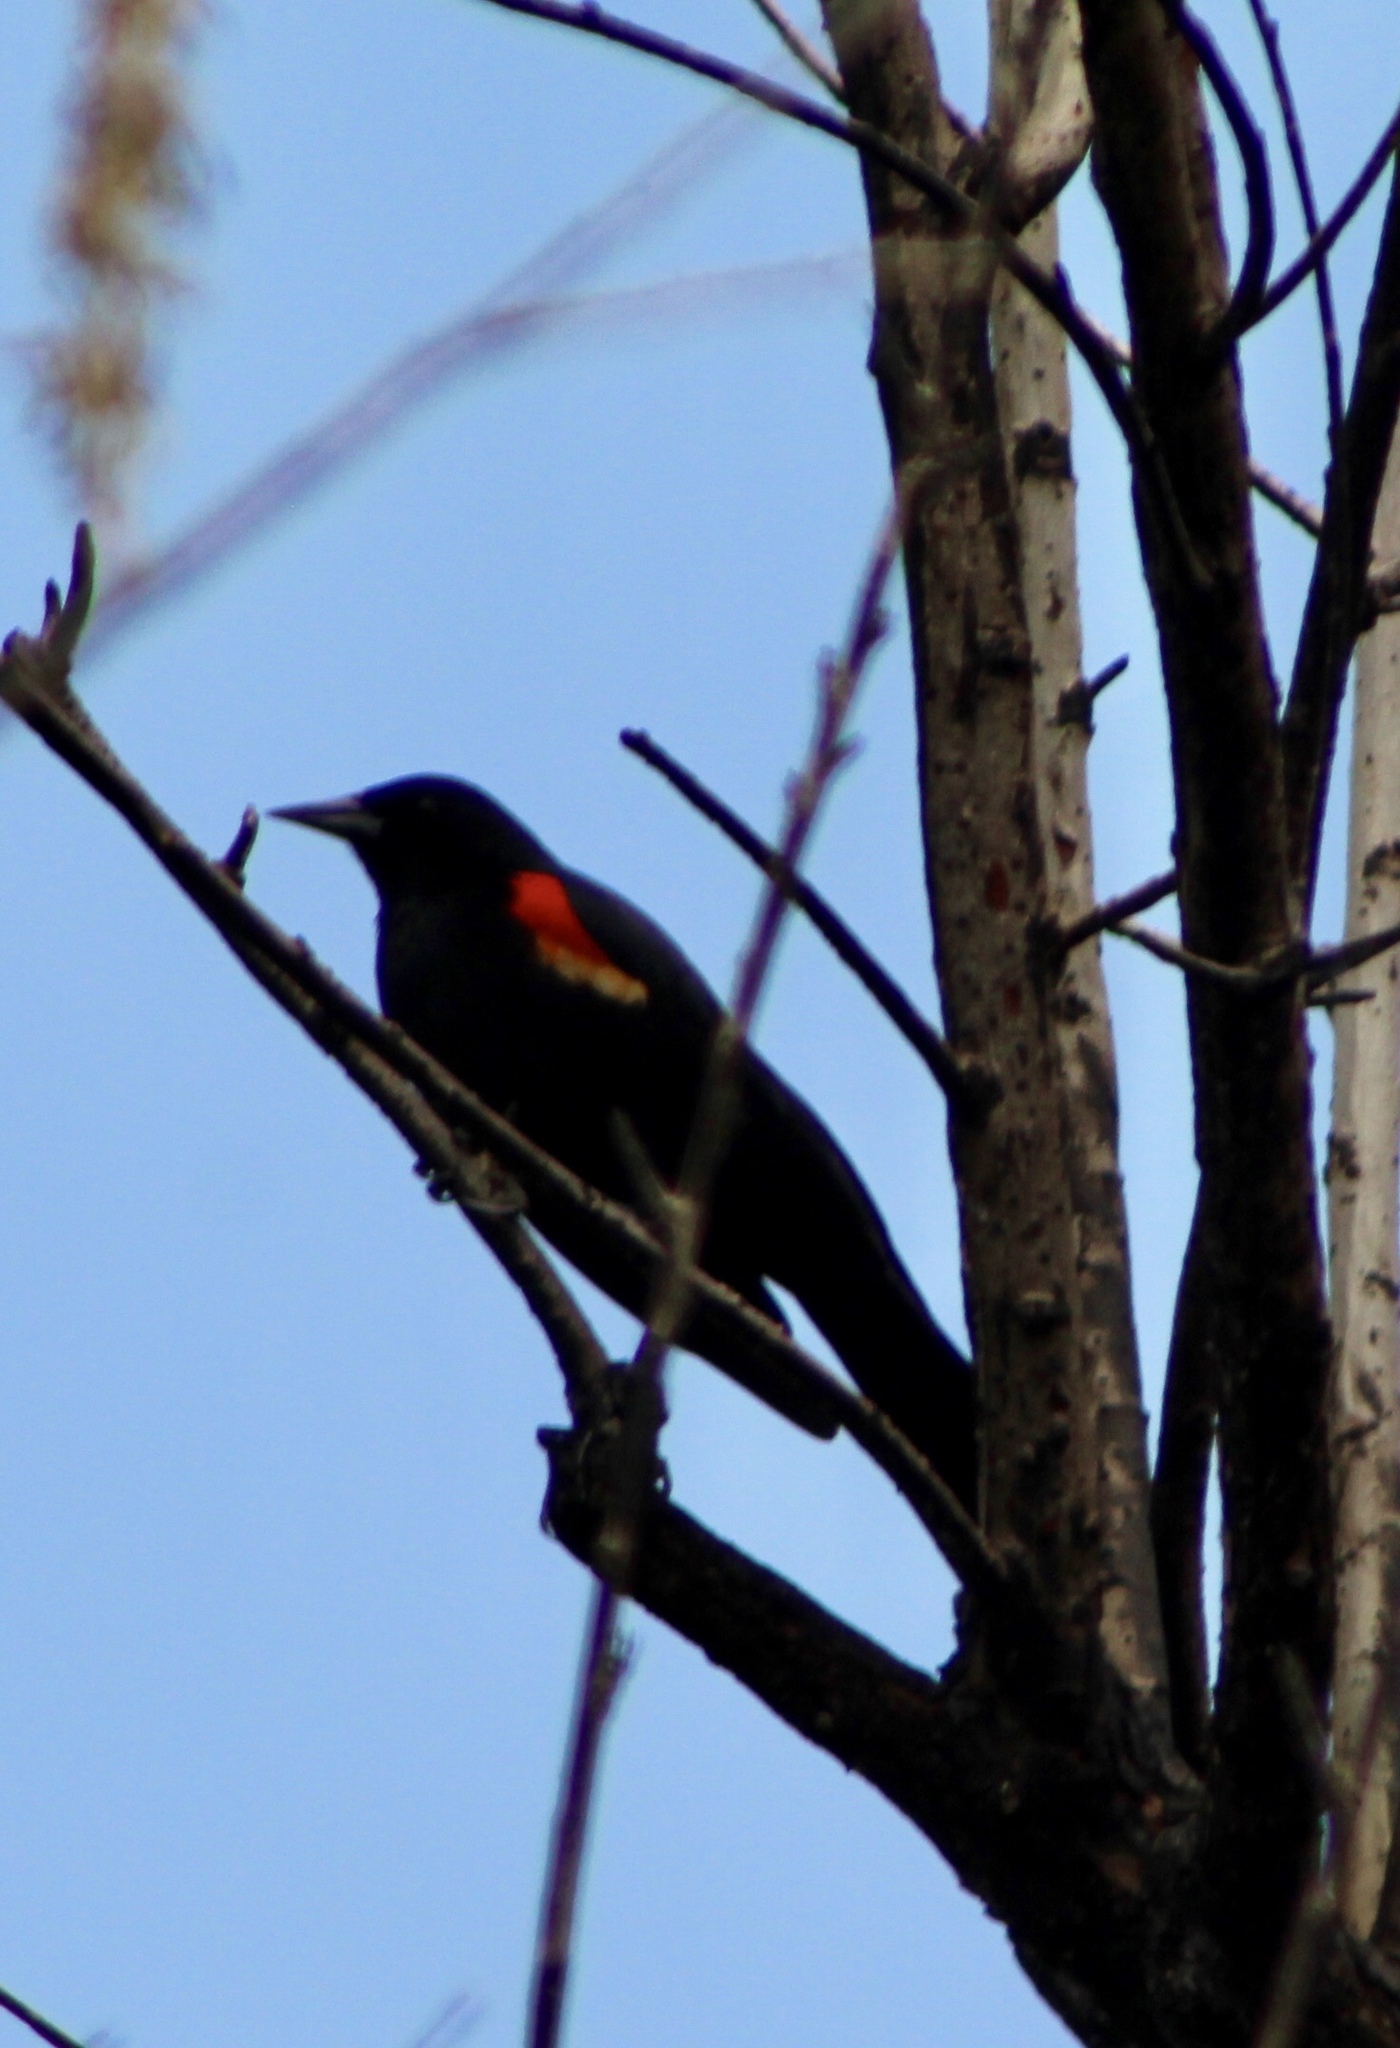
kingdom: Animalia
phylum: Chordata
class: Aves
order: Passeriformes
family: Icteridae
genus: Agelaius
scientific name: Agelaius phoeniceus
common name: Red-winged blackbird
